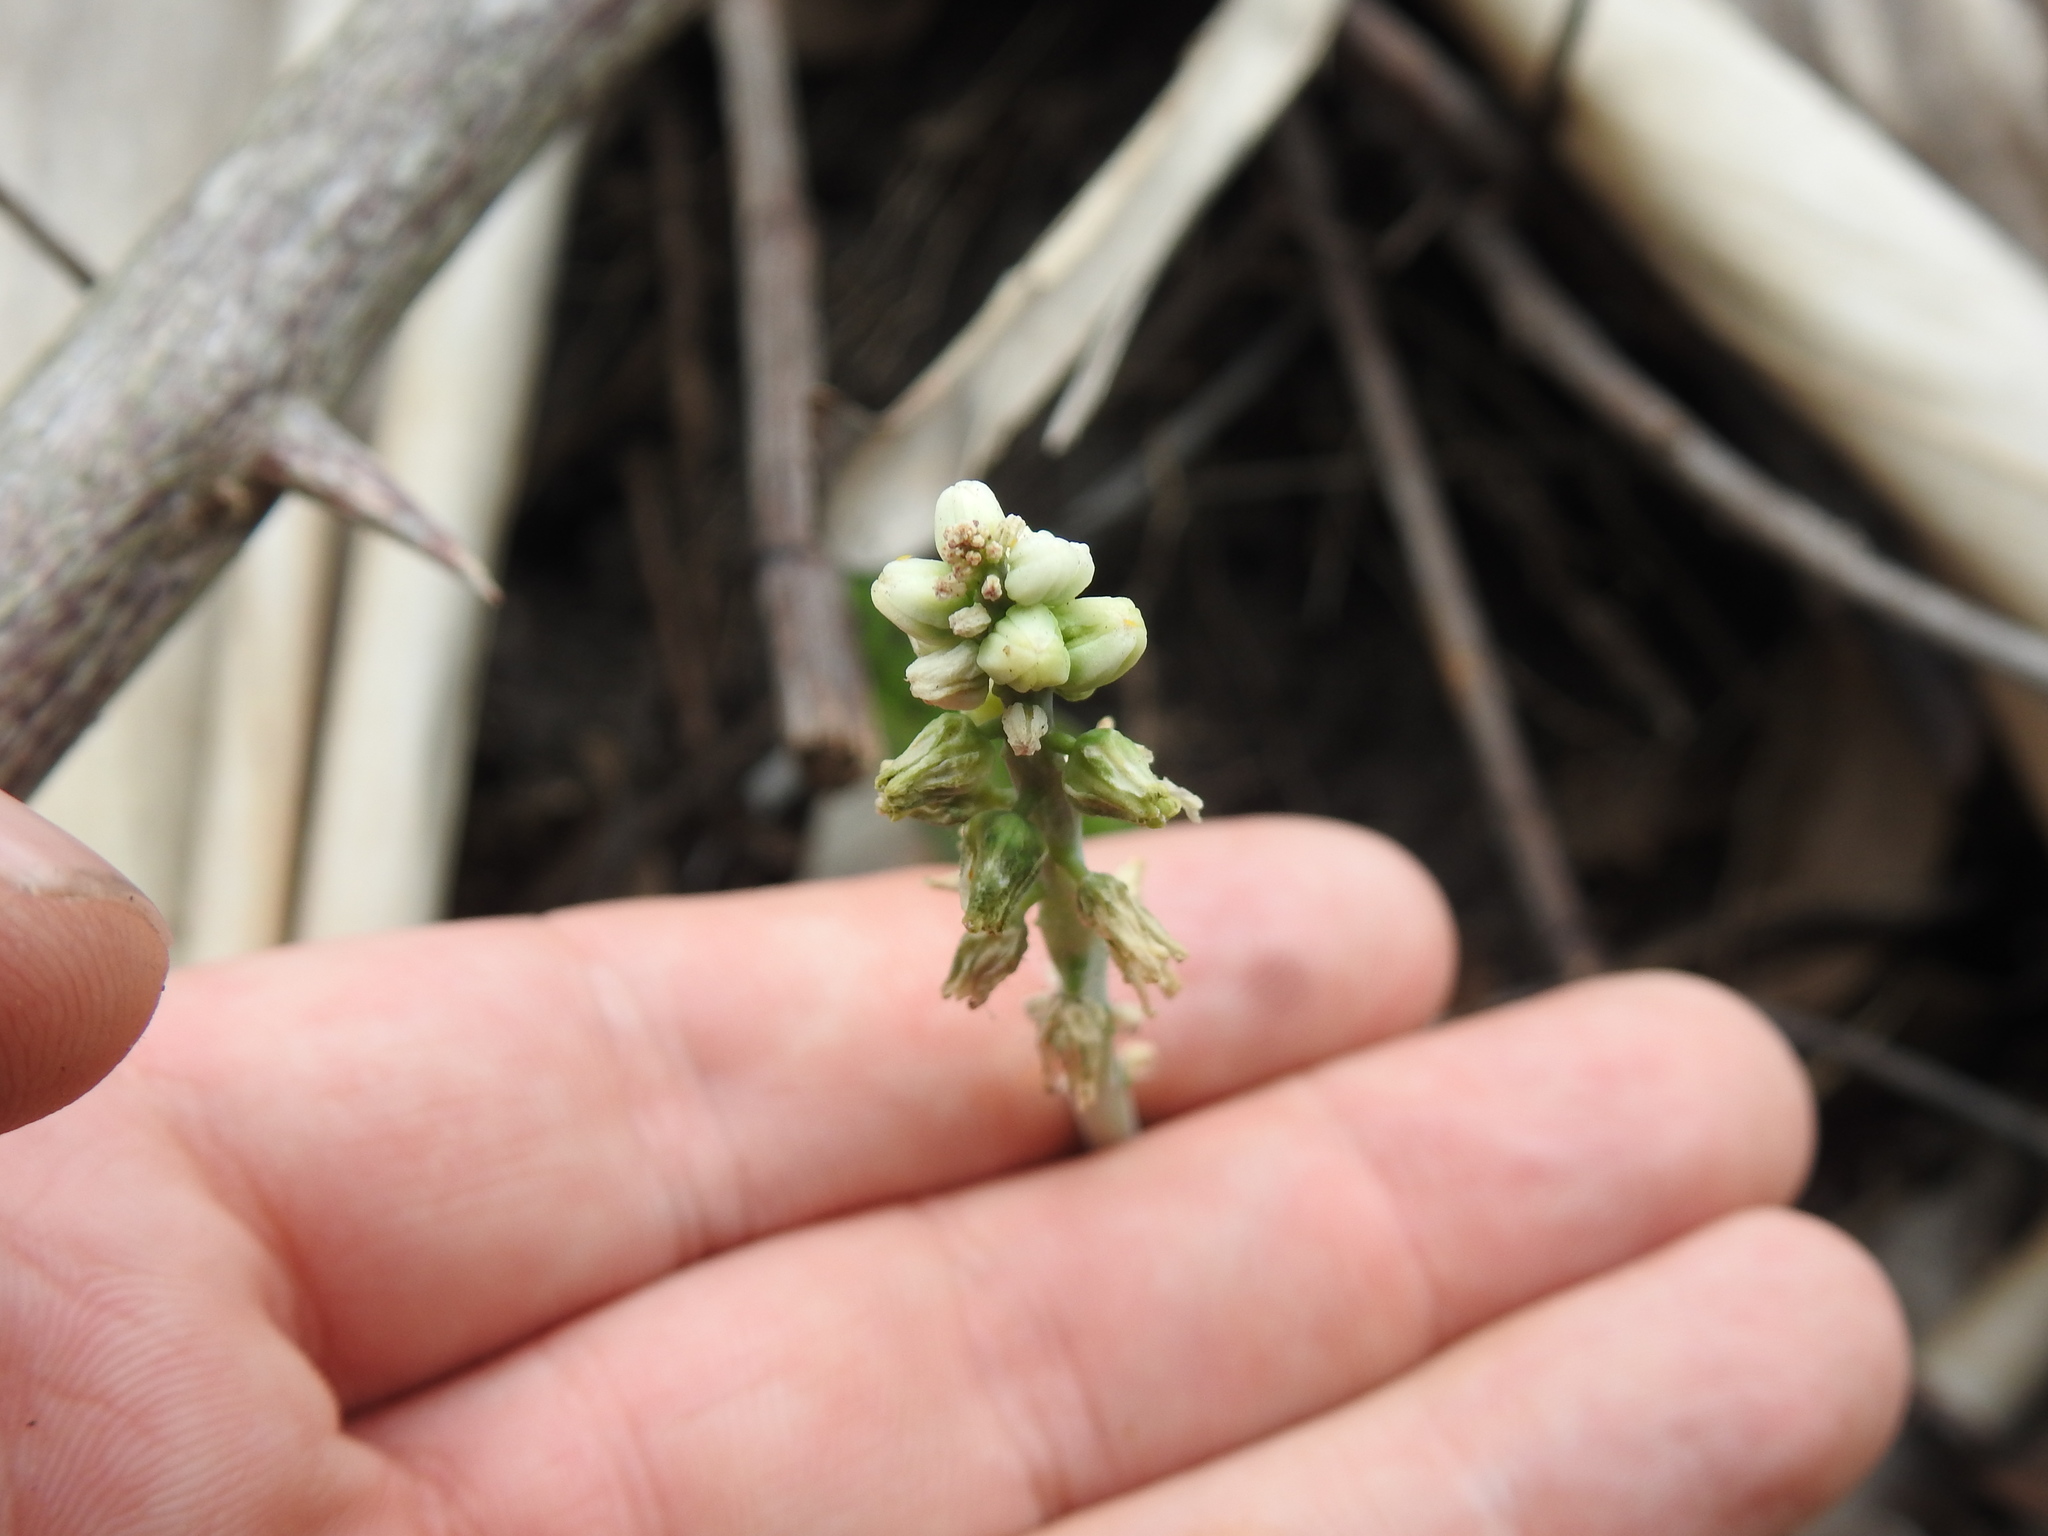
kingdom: Plantae
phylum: Tracheophyta
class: Liliopsida
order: Asparagales
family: Asparagaceae
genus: Drimiopsis
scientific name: Drimiopsis maculata
